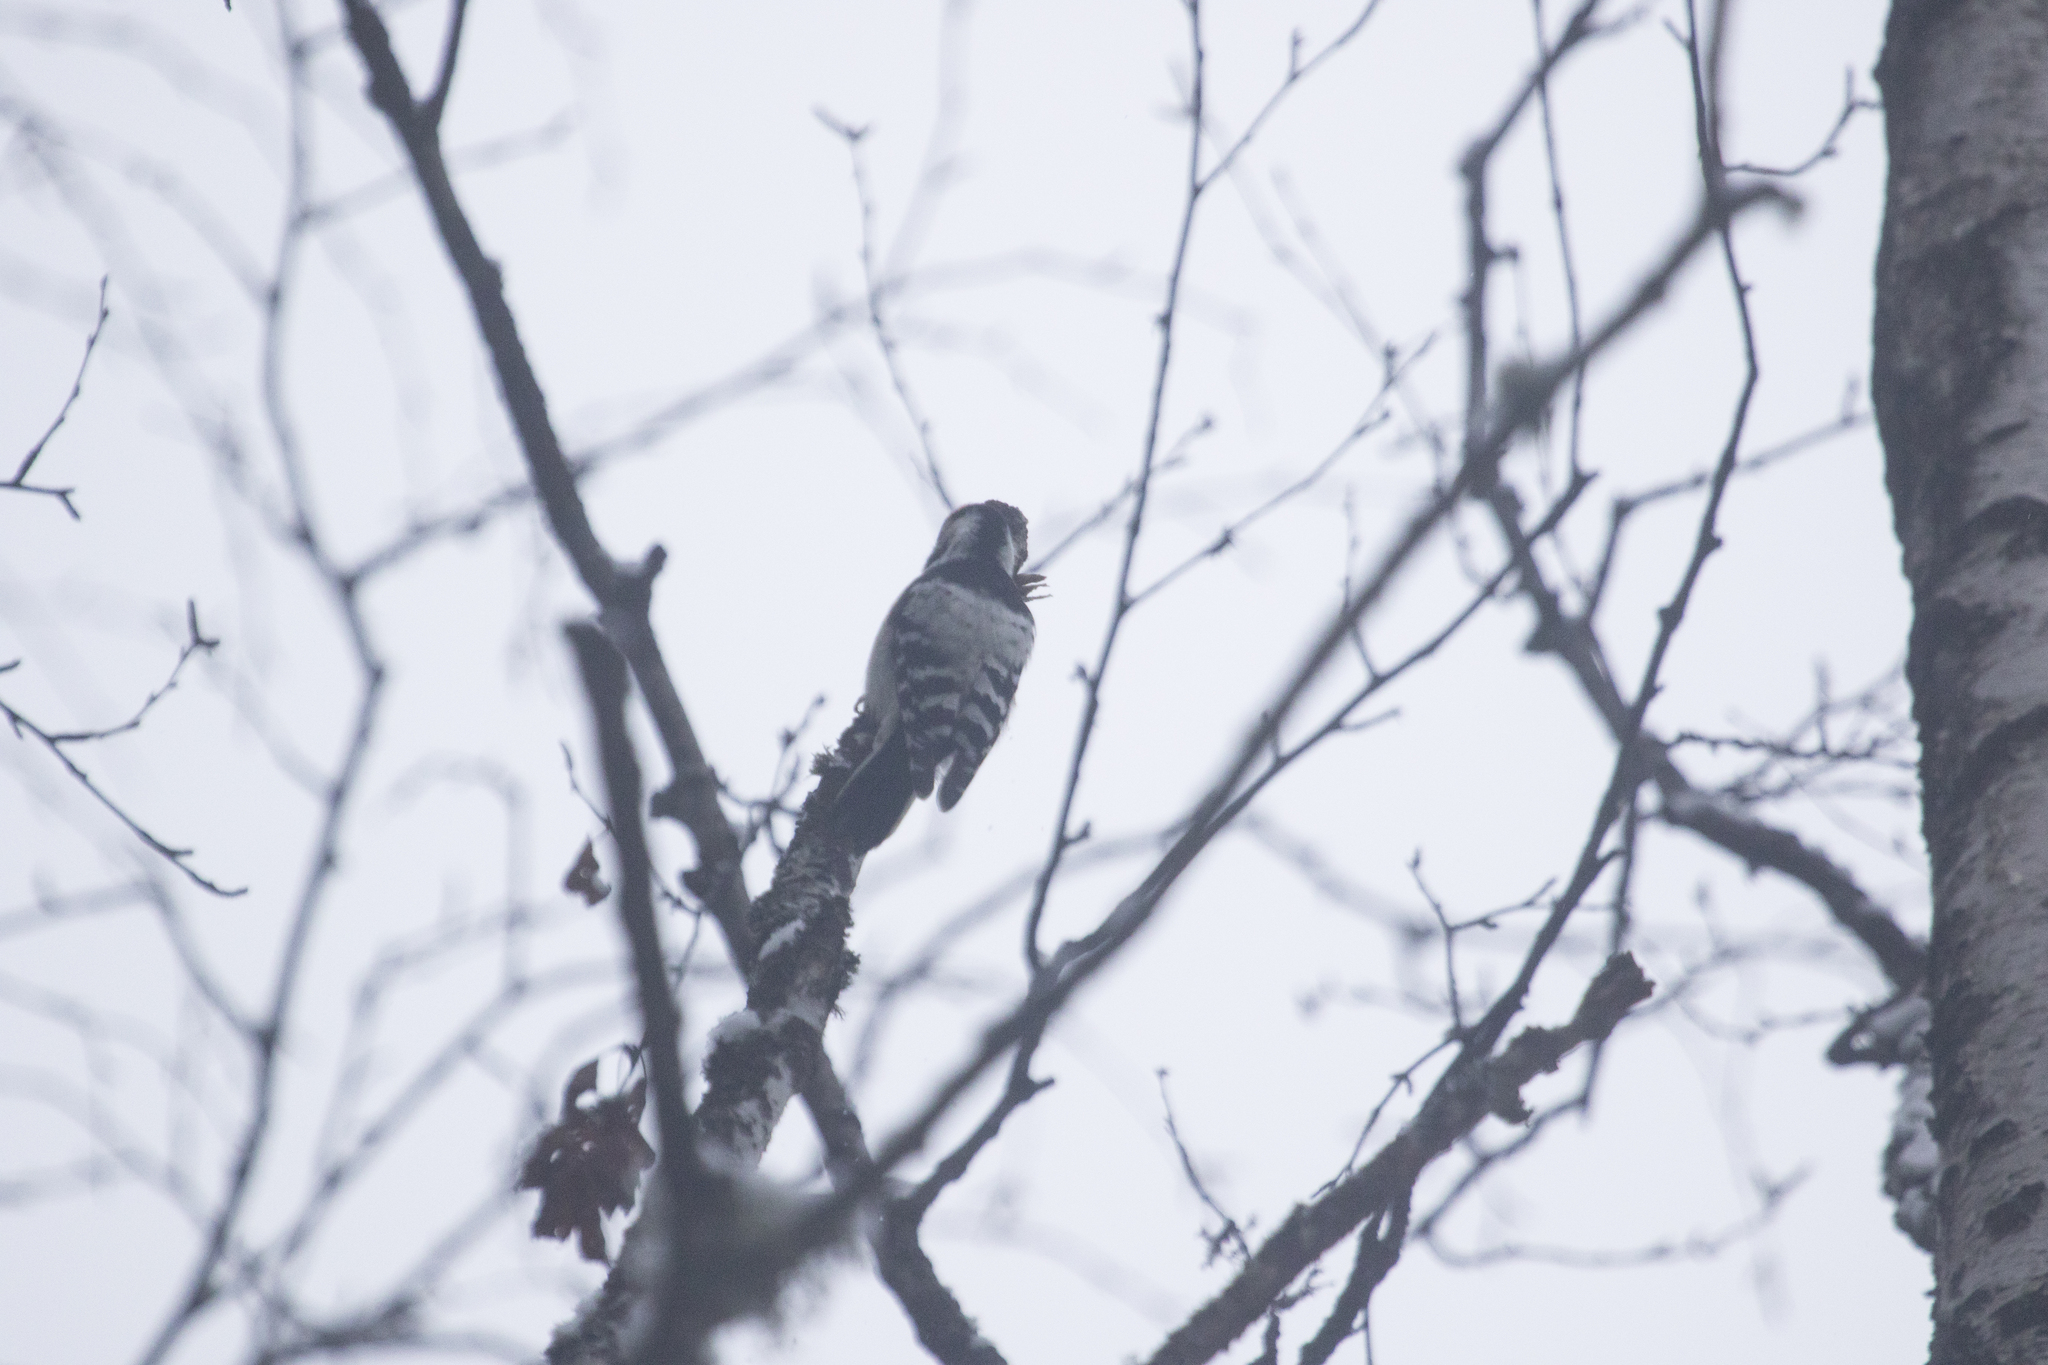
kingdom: Animalia
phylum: Chordata
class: Aves
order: Piciformes
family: Picidae
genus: Dryobates
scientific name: Dryobates minor
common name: Lesser spotted woodpecker
